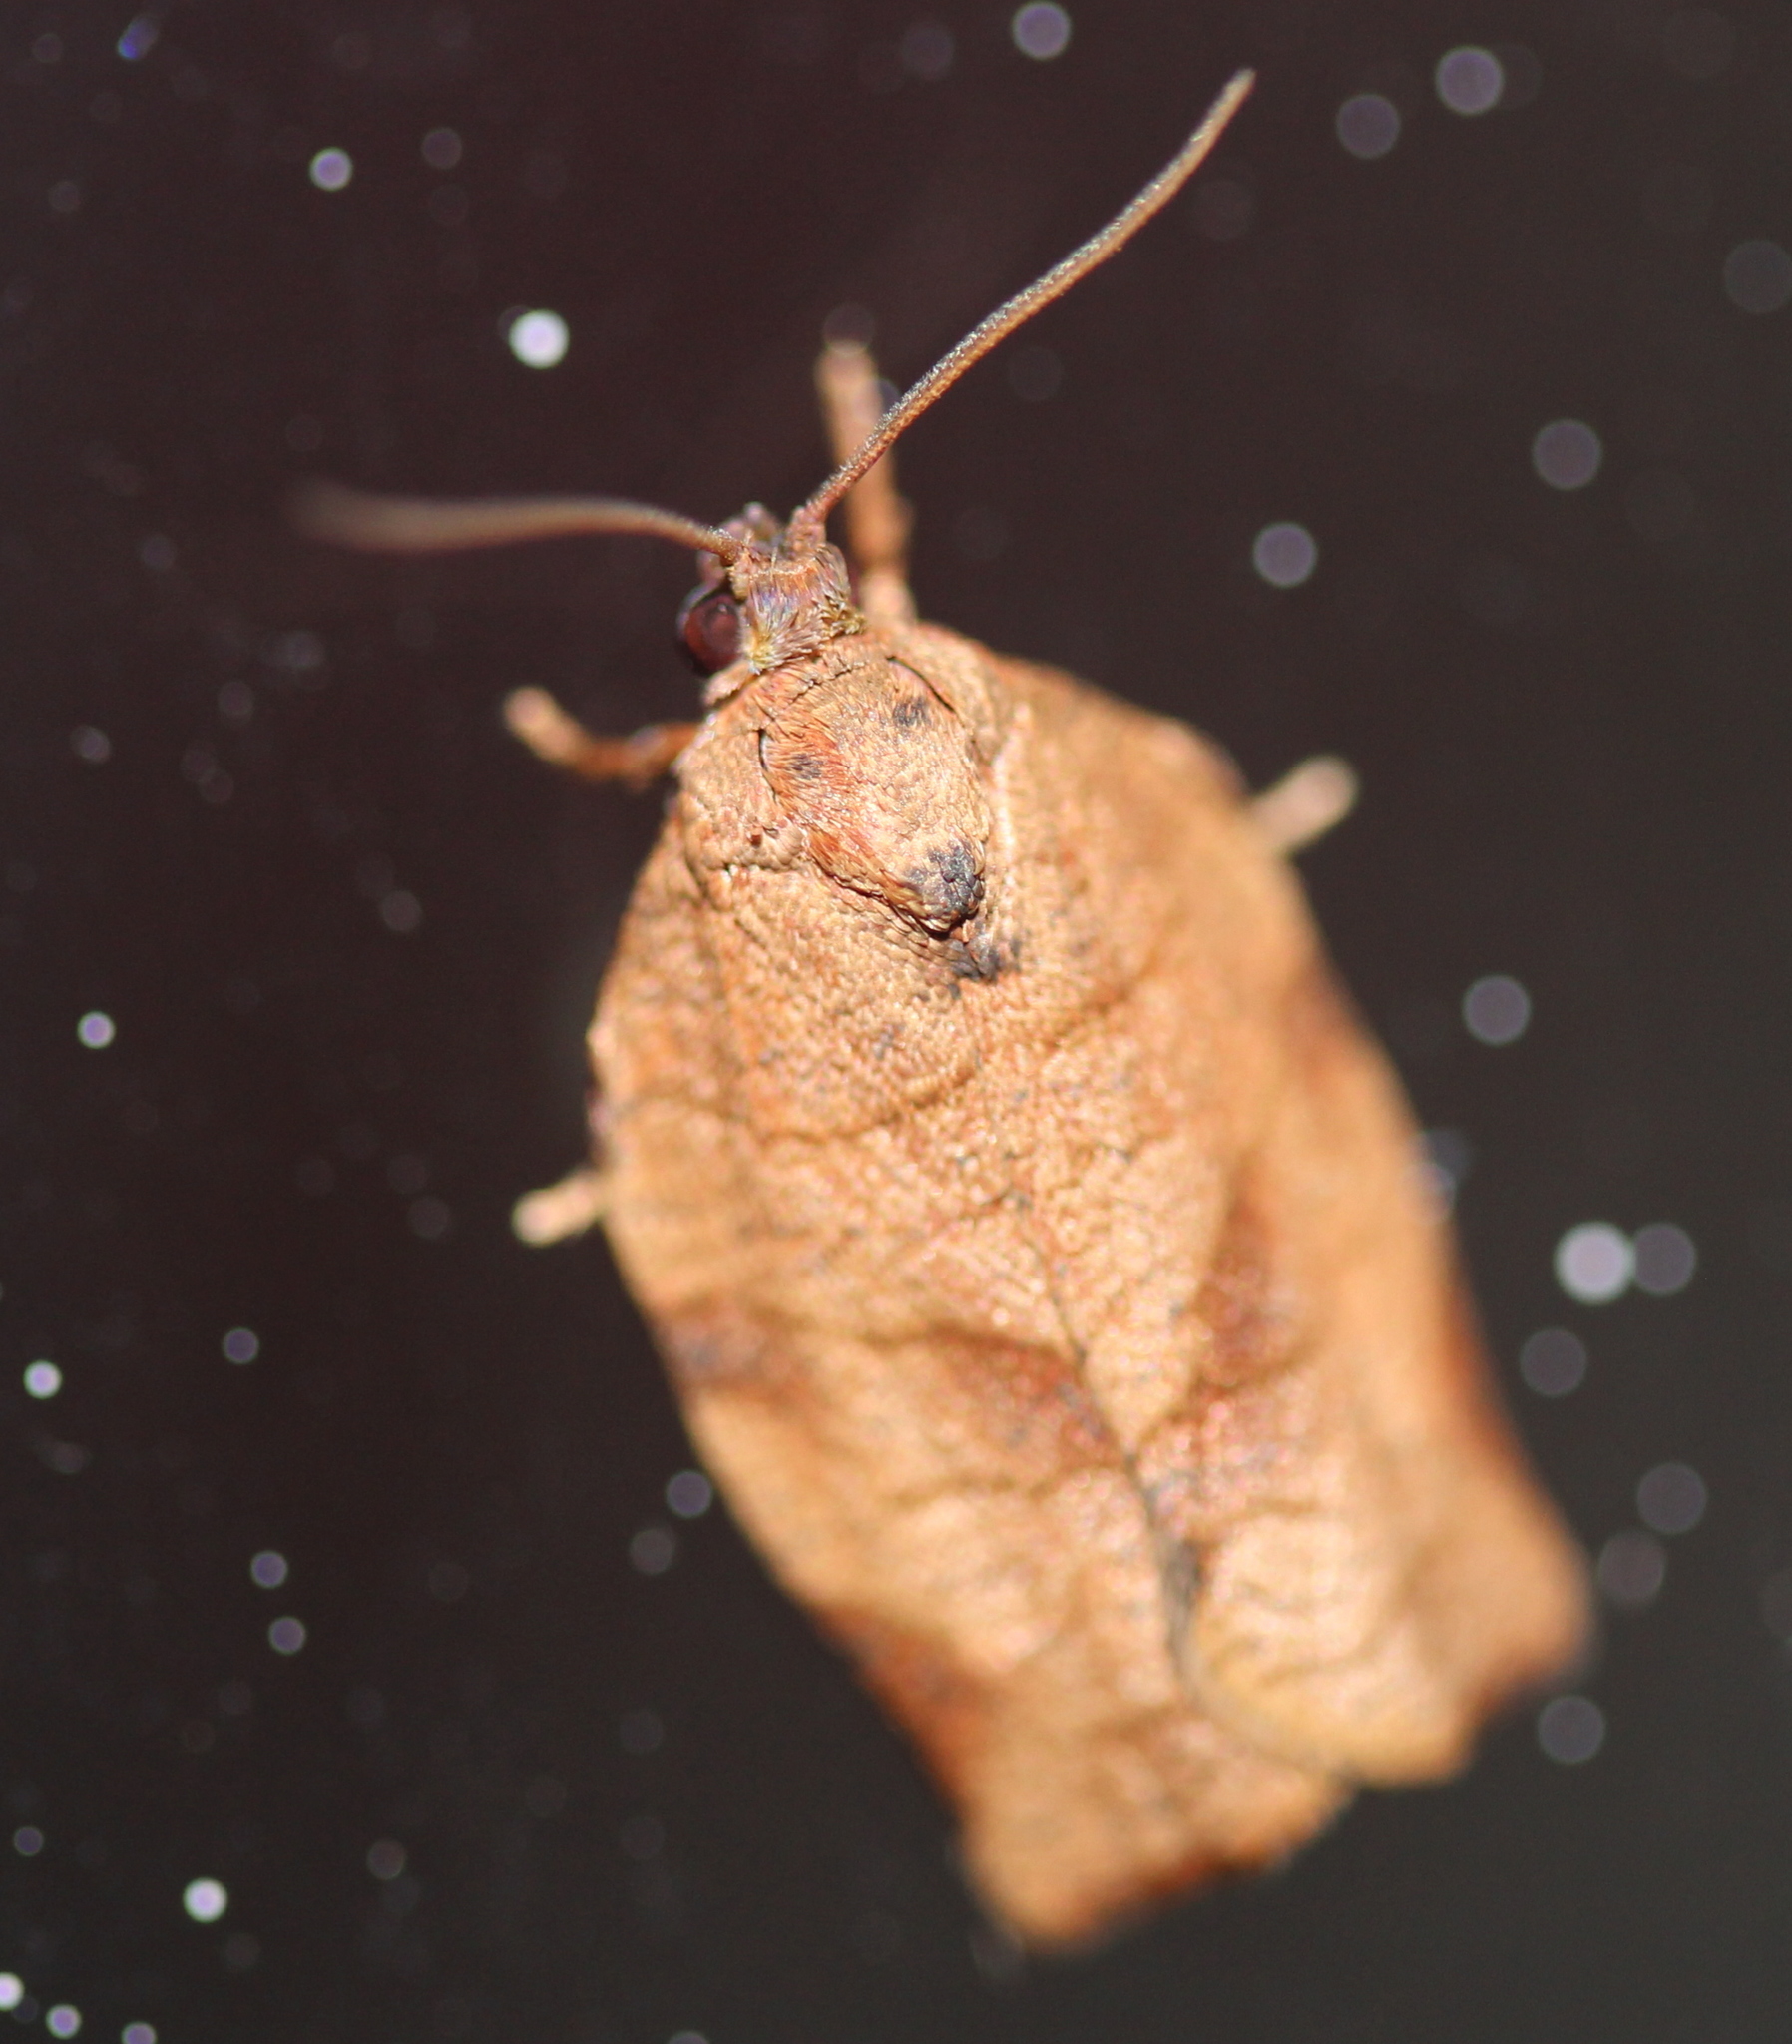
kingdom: Animalia
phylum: Arthropoda
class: Insecta
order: Lepidoptera
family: Tortricidae
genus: Choristoneura
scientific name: Choristoneura rosaceana
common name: Oblique-banded leafroller moth
